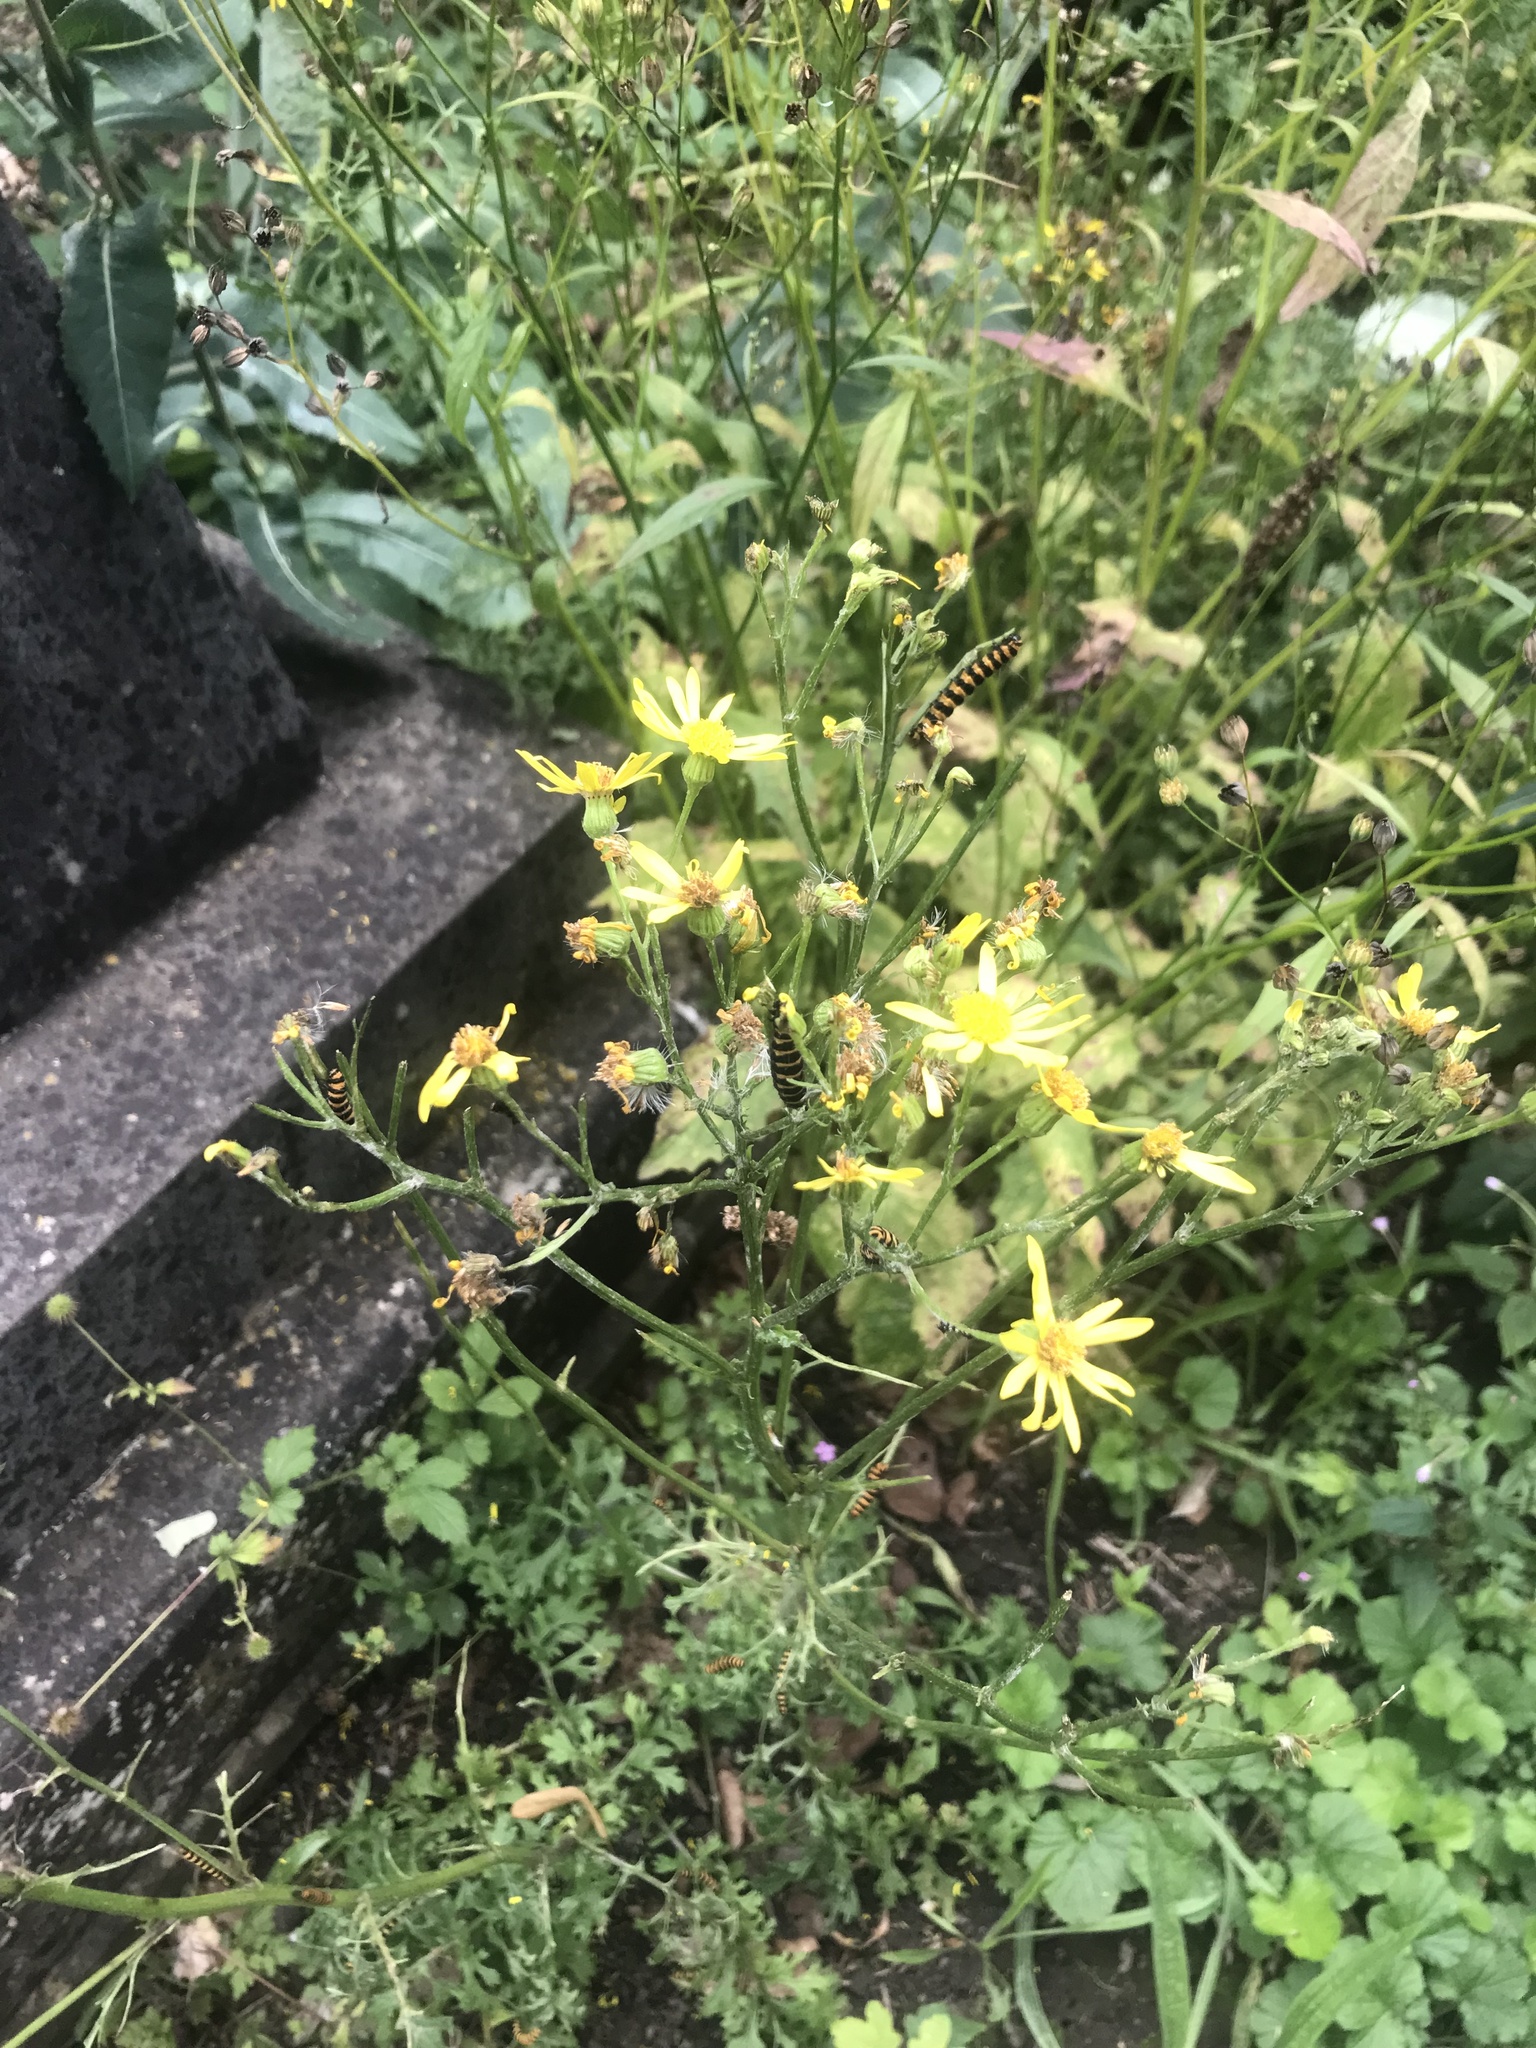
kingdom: Animalia
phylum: Arthropoda
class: Insecta
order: Lepidoptera
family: Erebidae
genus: Tyria
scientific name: Tyria jacobaeae
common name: Cinnabar
